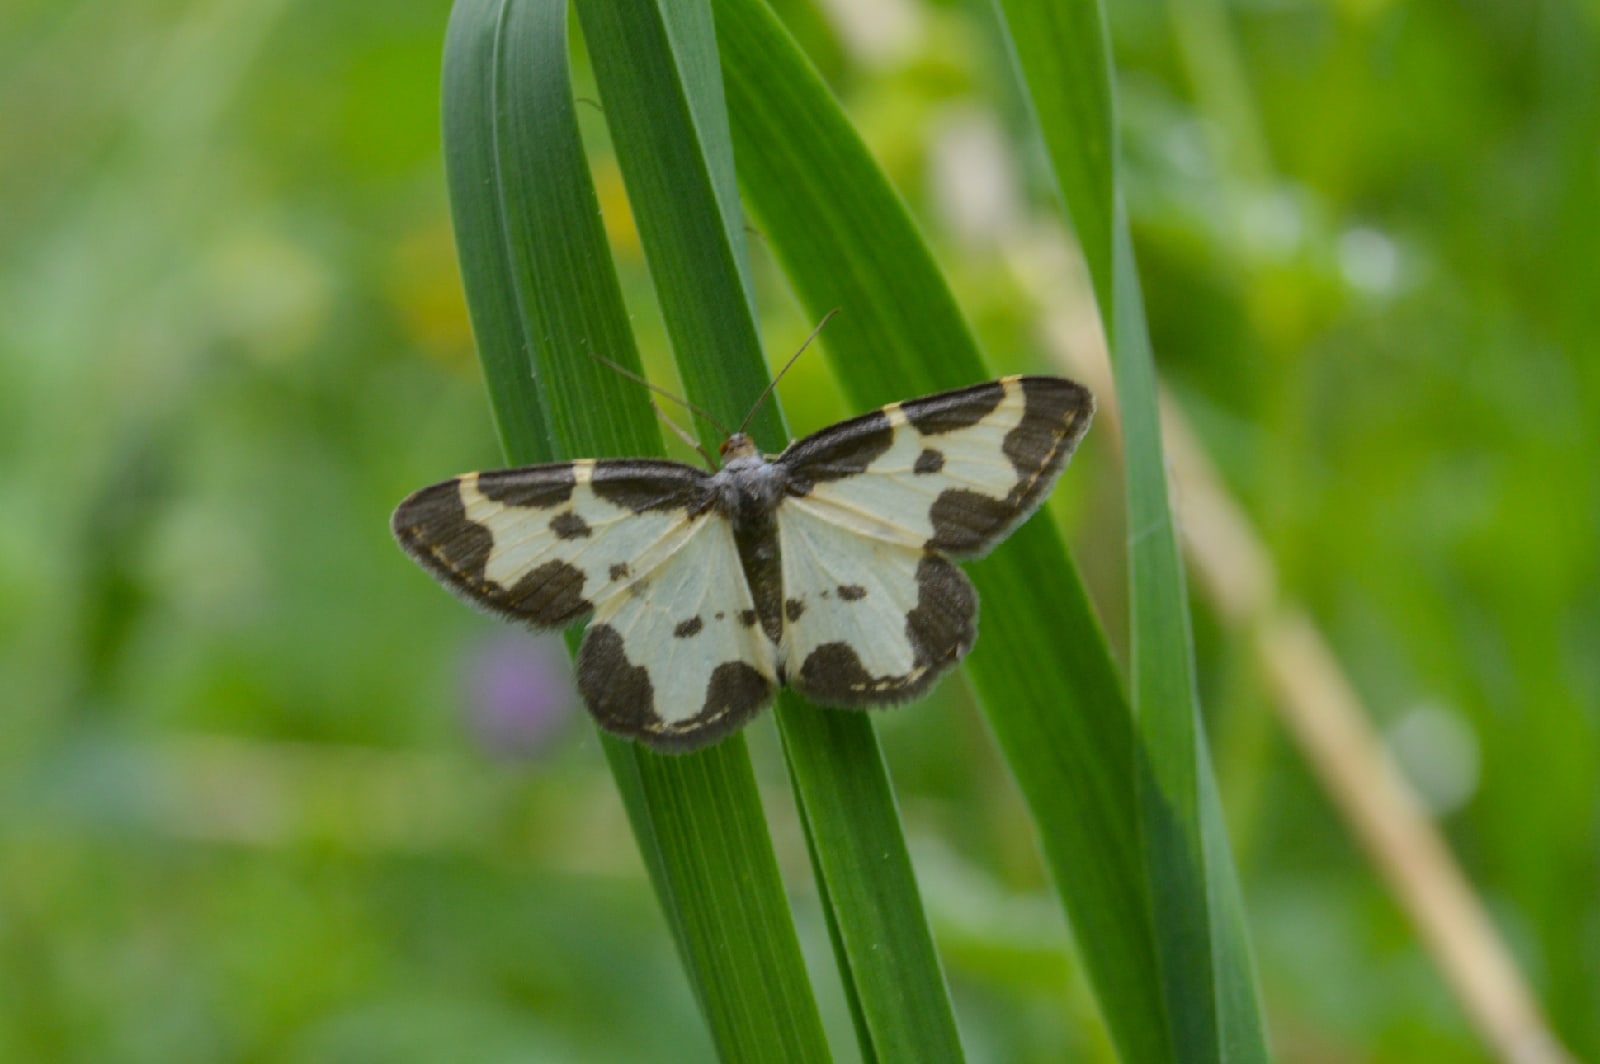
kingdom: Animalia
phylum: Arthropoda
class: Insecta
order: Lepidoptera
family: Geometridae
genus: Lomaspilis
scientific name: Lomaspilis marginata
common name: Clouded border
